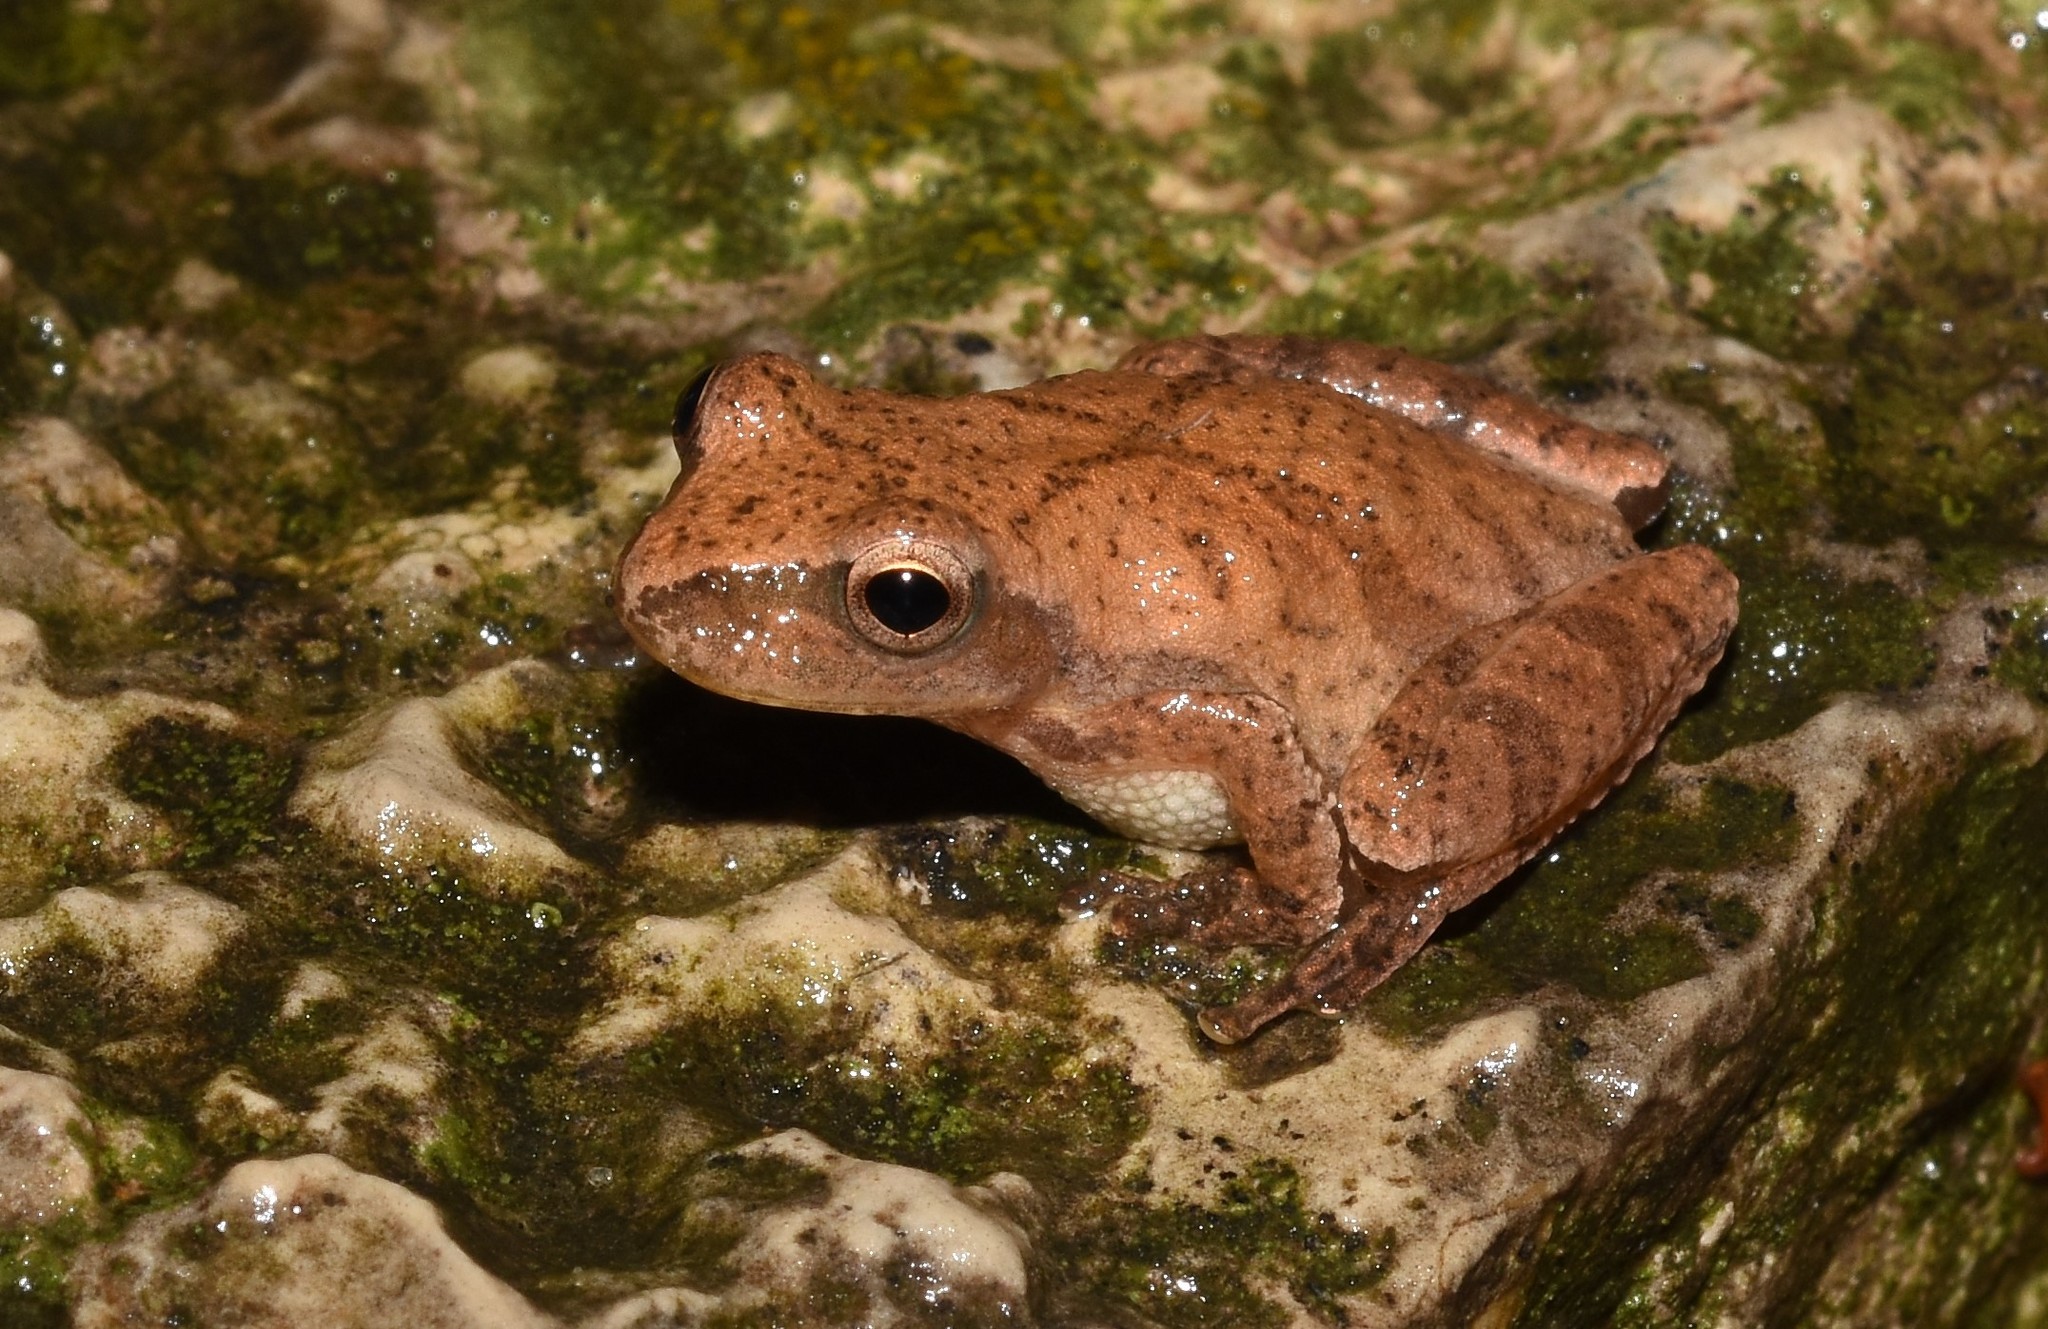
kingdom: Animalia
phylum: Chordata
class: Amphibia
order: Anura
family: Hylidae
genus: Pseudacris
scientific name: Pseudacris crucifer
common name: Spring peeper
